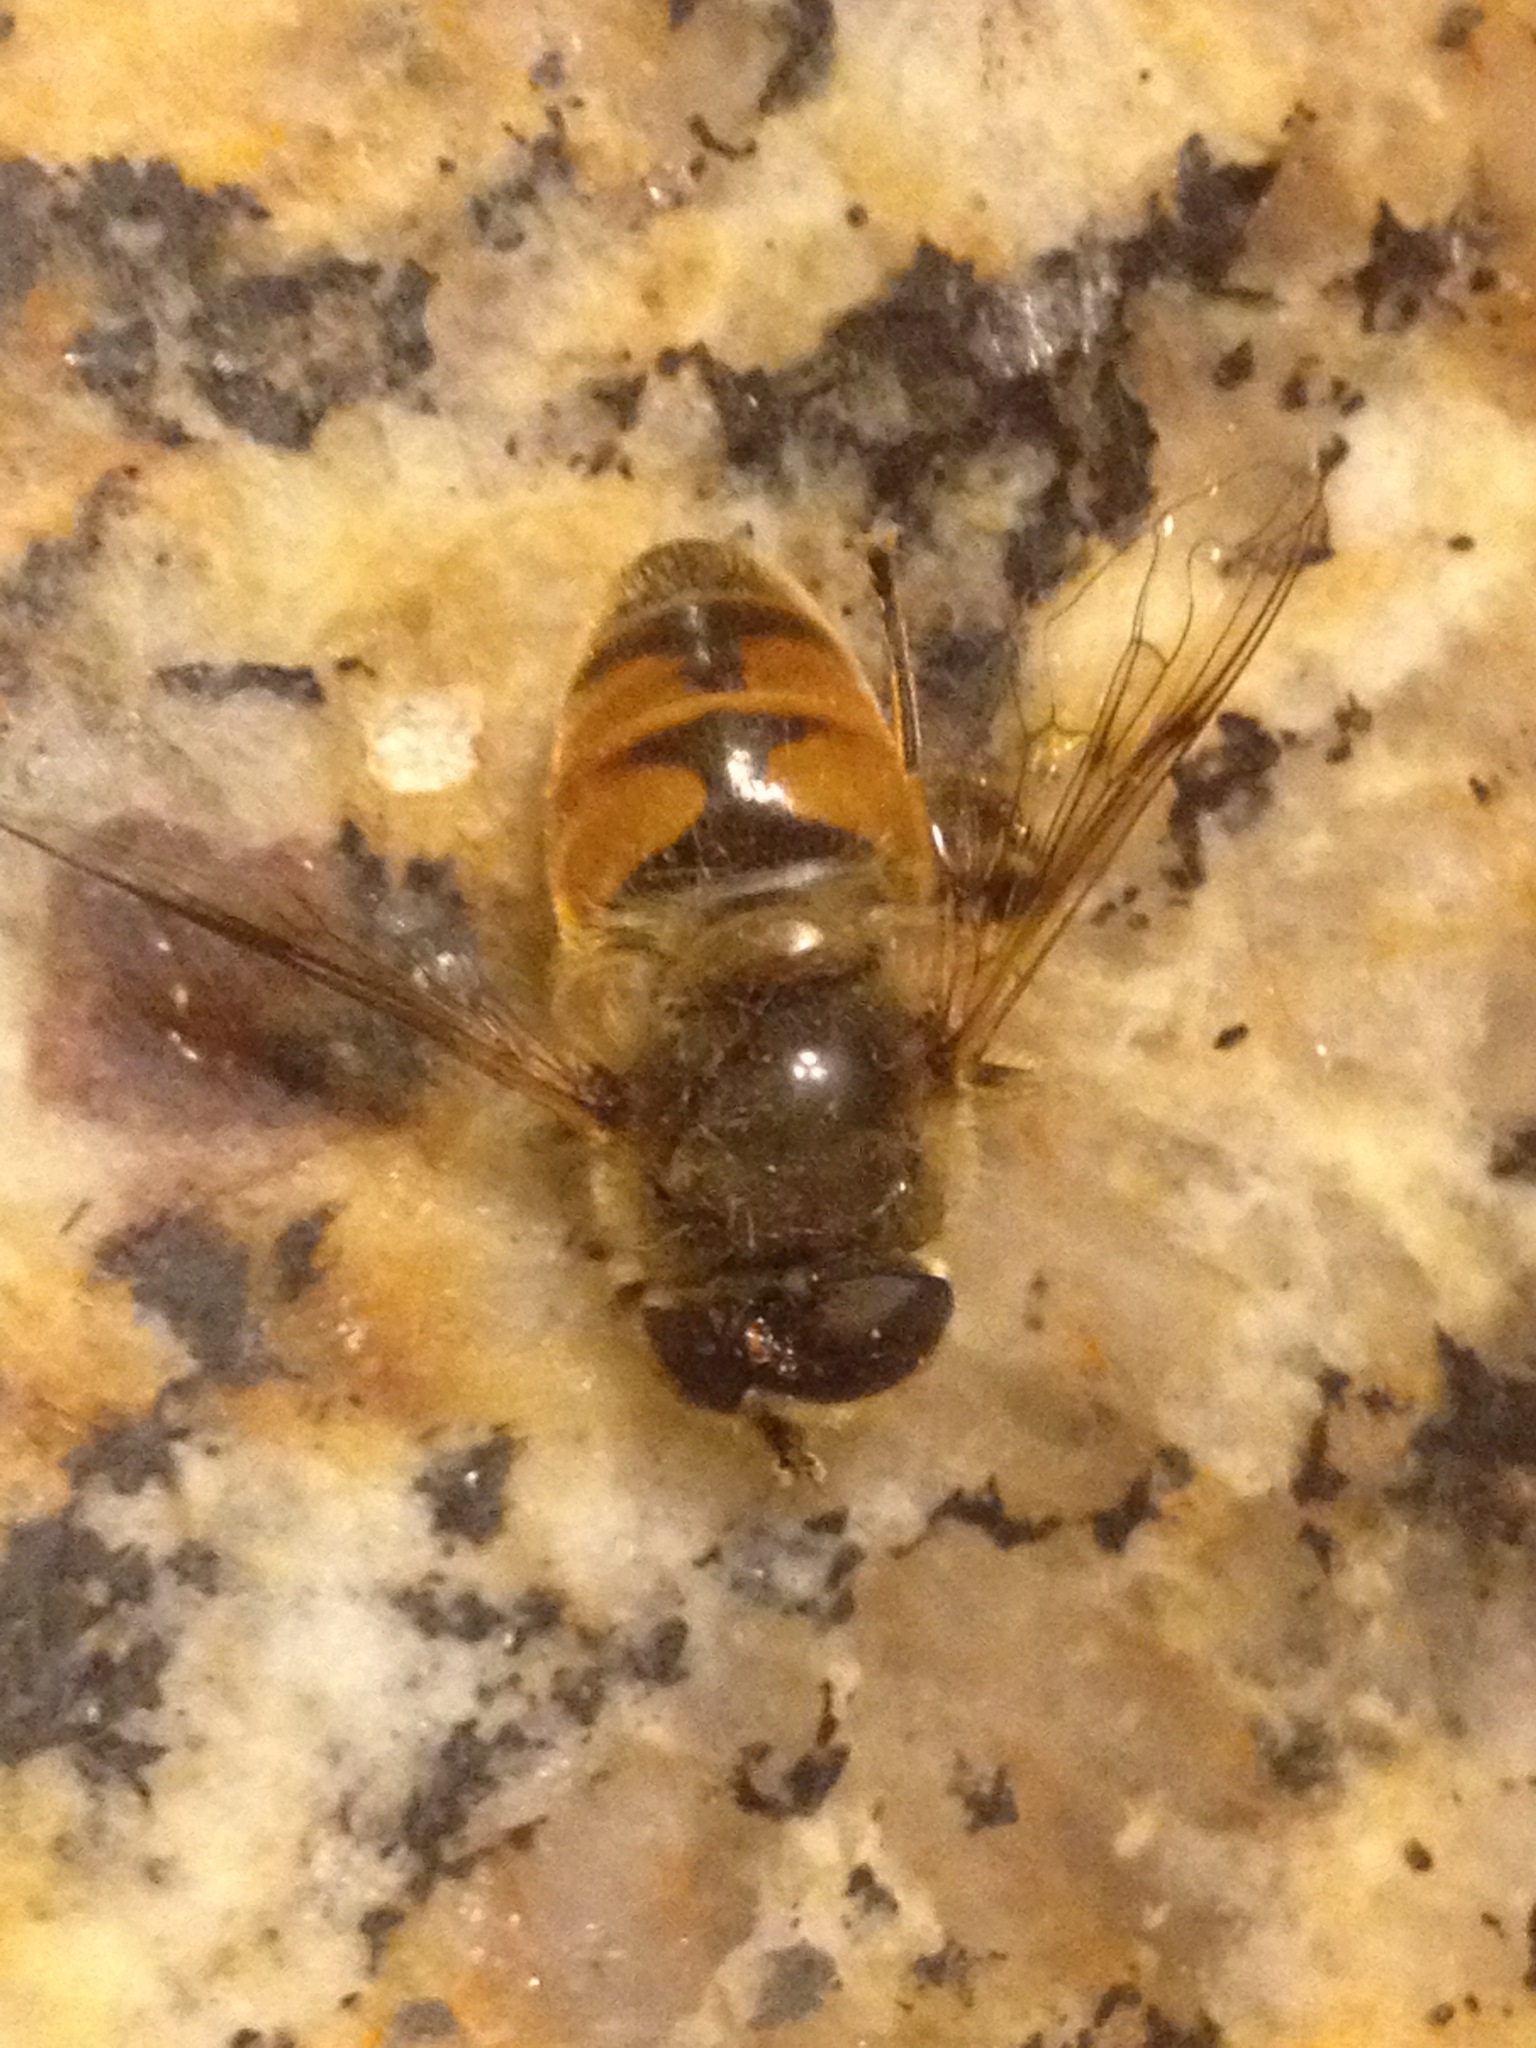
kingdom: Animalia
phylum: Arthropoda
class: Insecta
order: Diptera
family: Syrphidae
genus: Eristalis
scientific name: Eristalis tenax
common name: Drone fly
